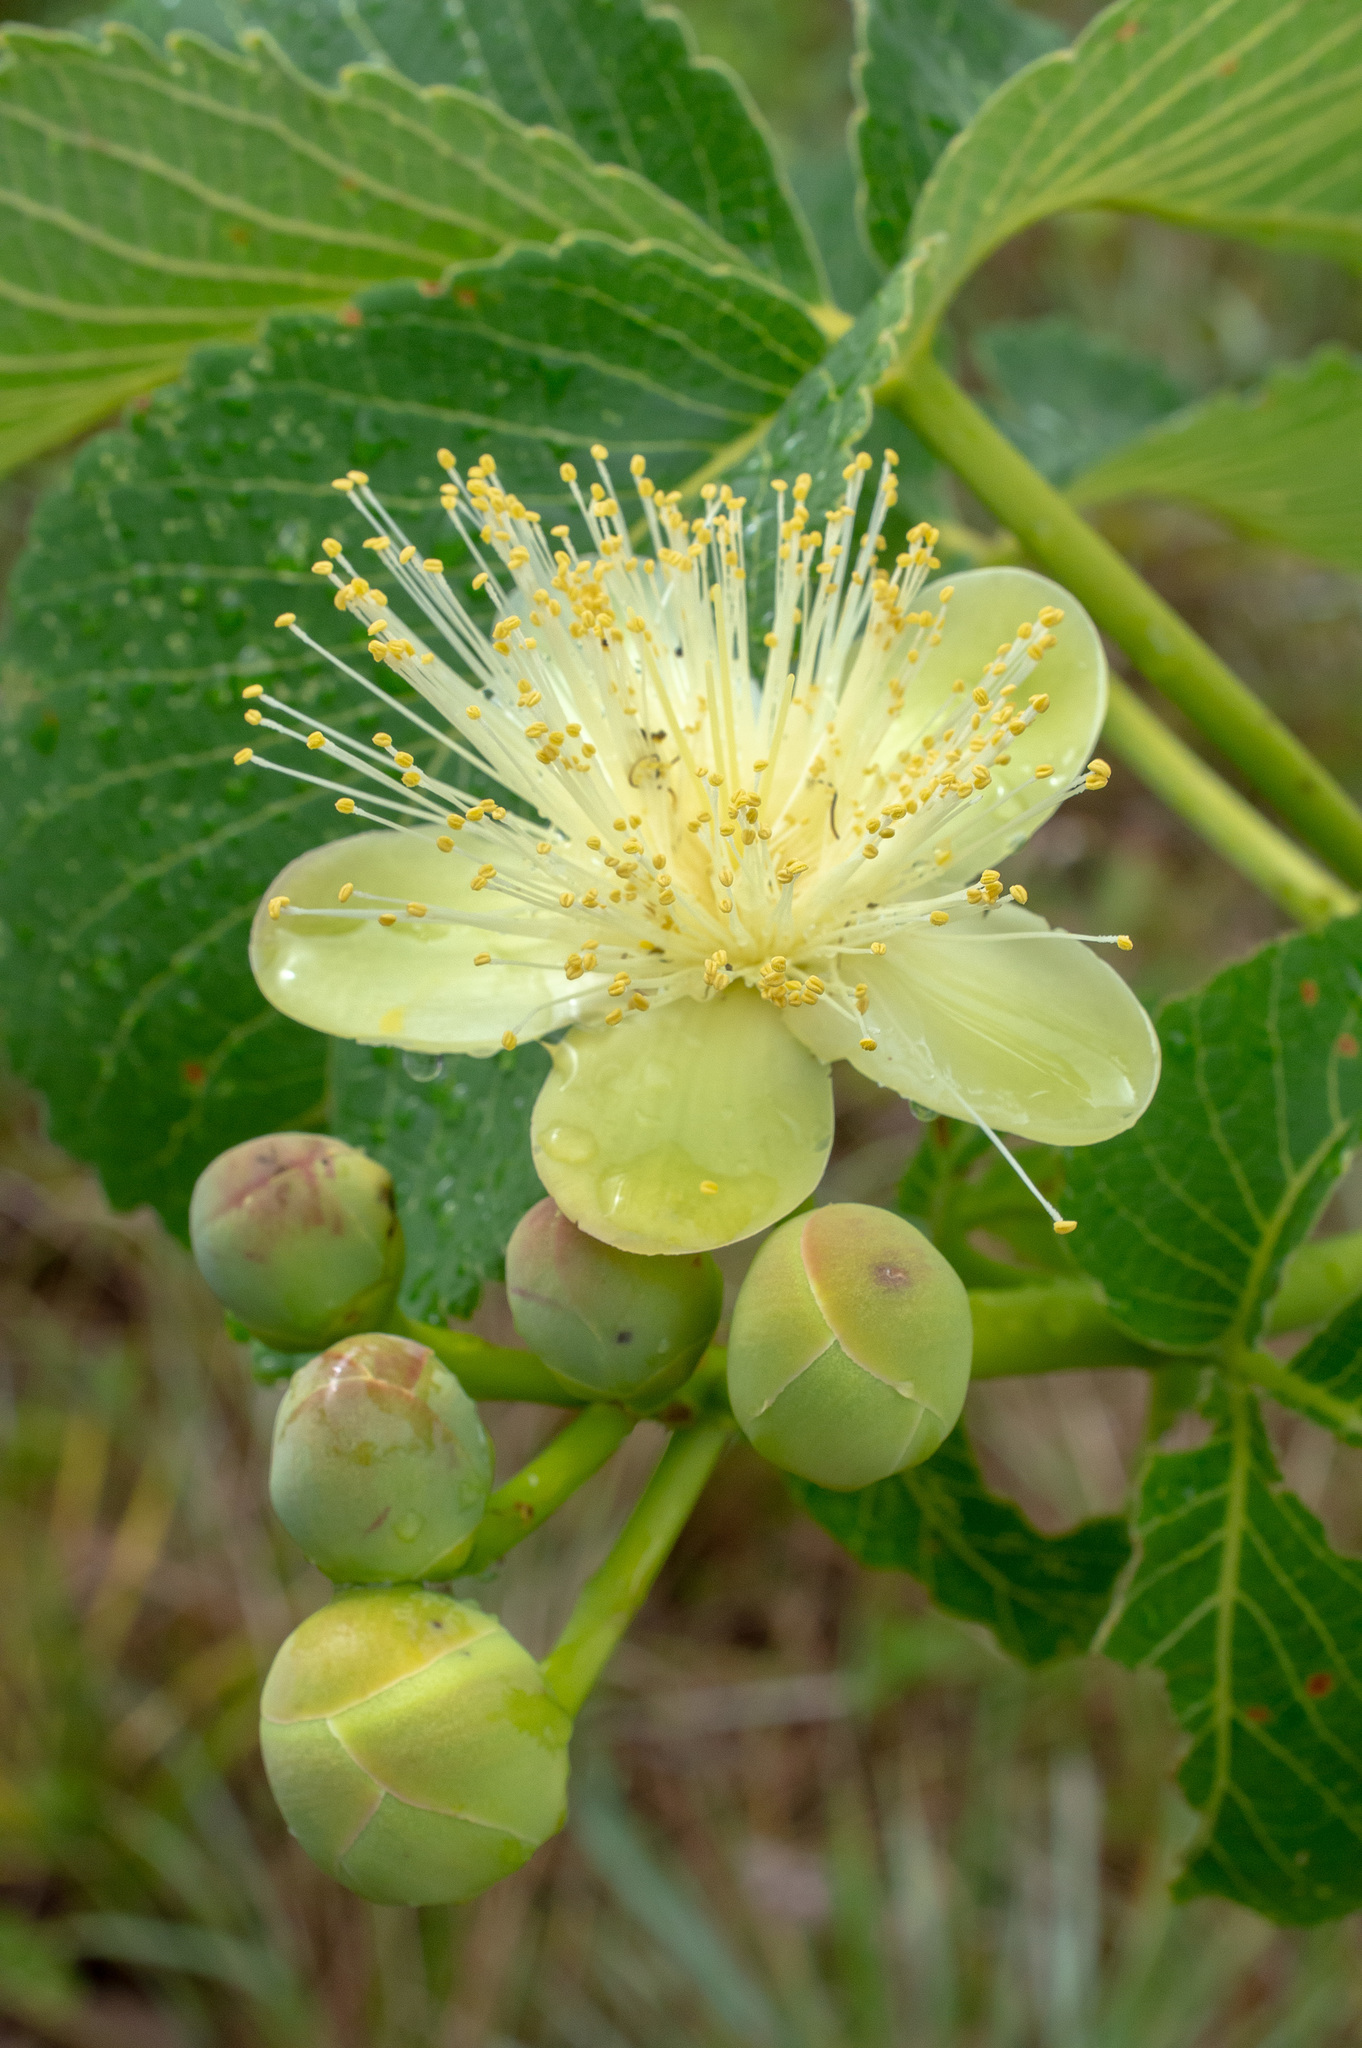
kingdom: Plantae
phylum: Tracheophyta
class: Magnoliopsida
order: Malpighiales
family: Caryocaraceae
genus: Caryocar
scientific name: Caryocar brasiliense
